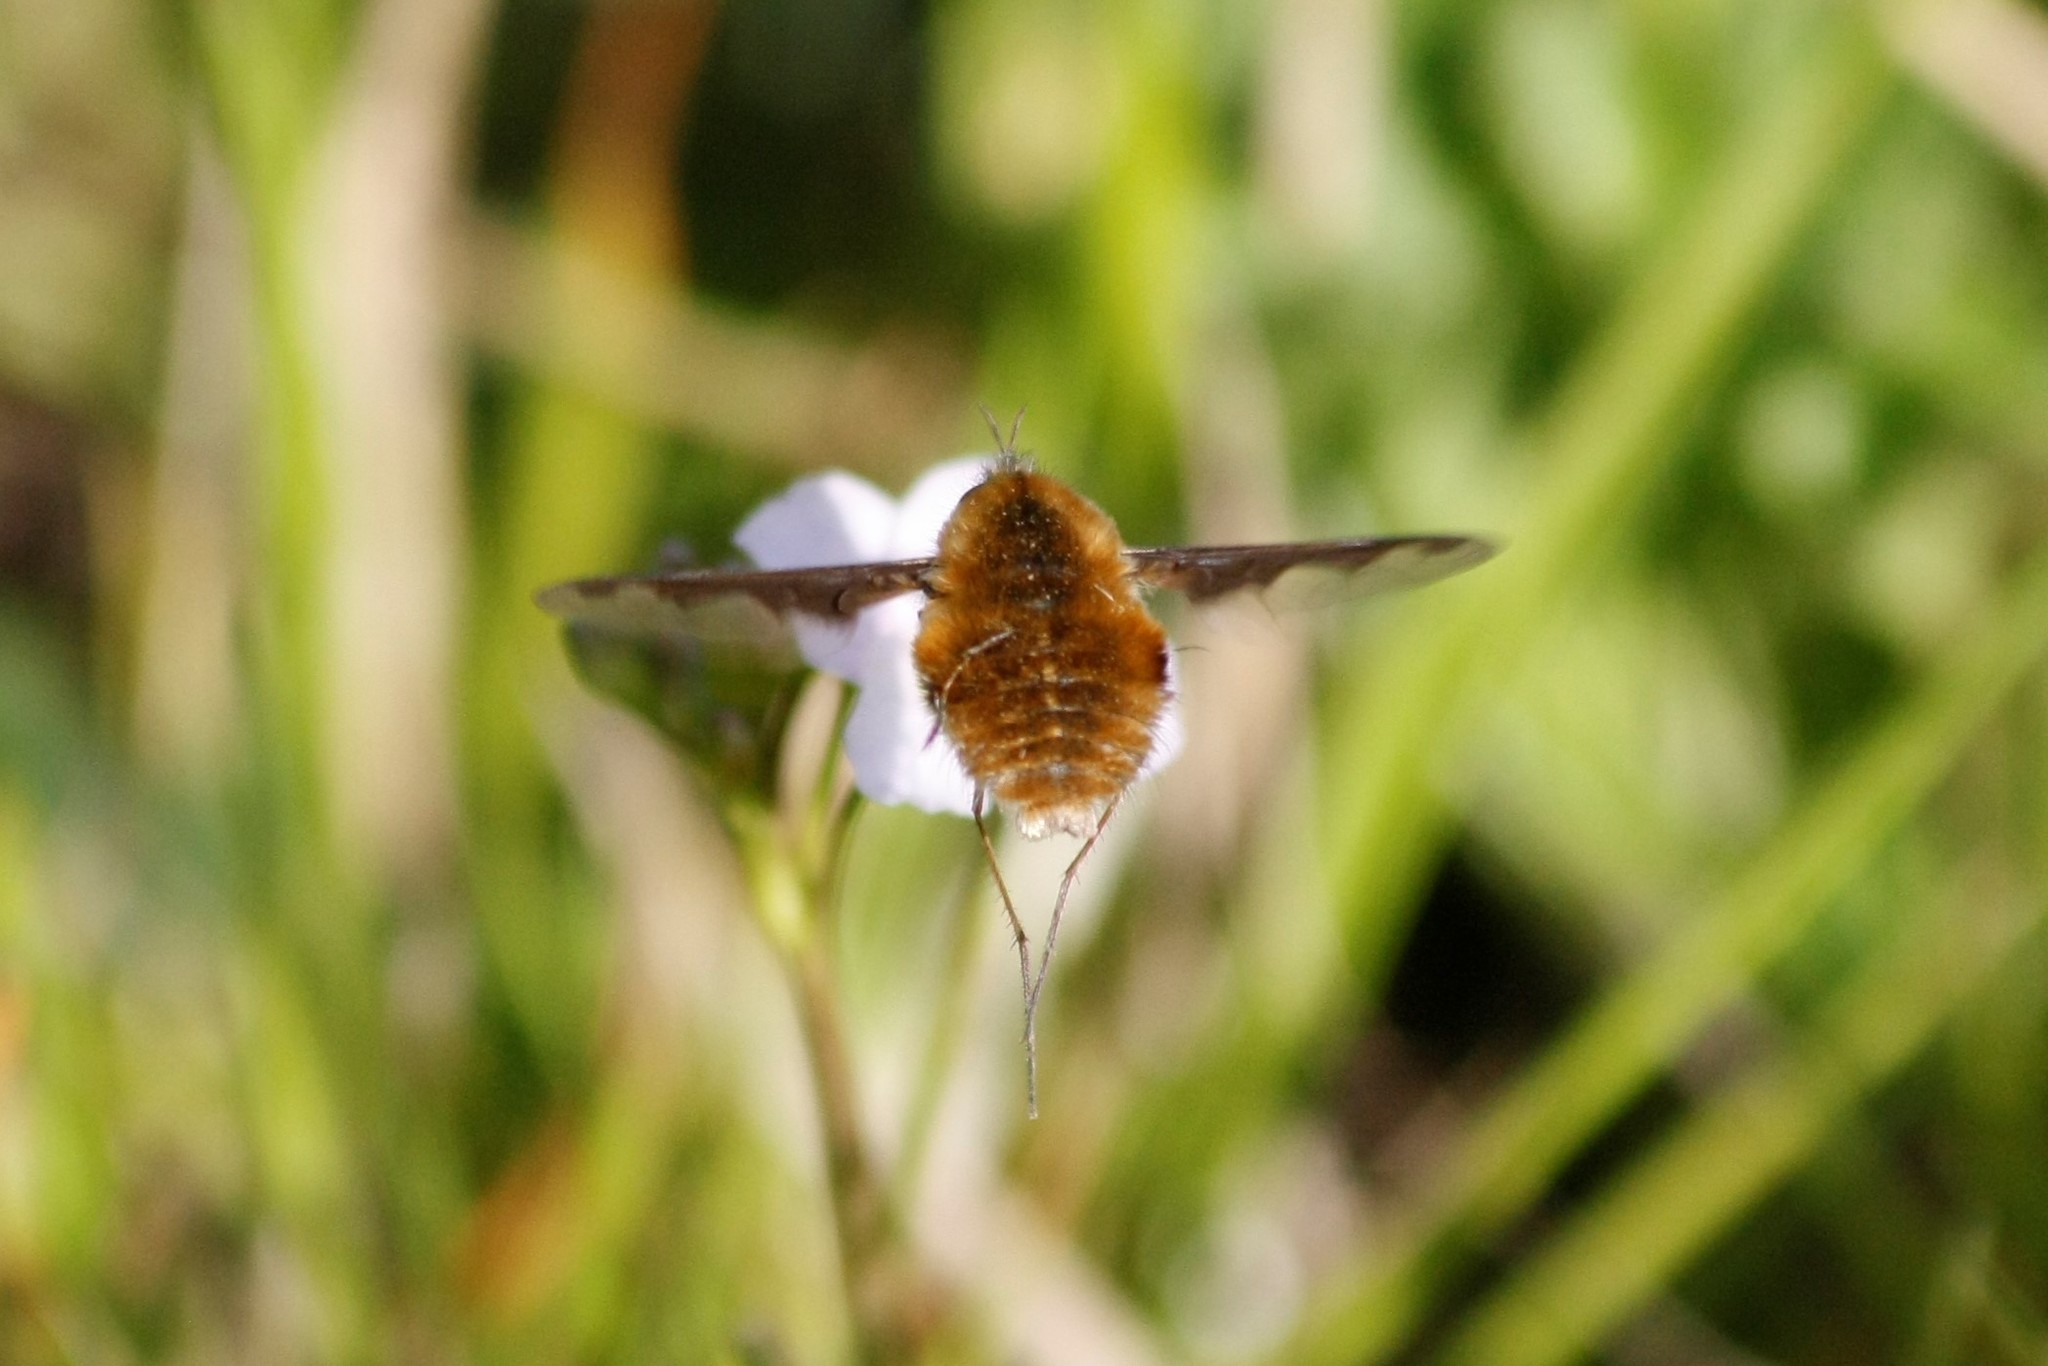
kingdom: Animalia
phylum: Arthropoda
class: Insecta
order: Diptera
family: Bombyliidae
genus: Bombylius
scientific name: Bombylius major
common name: Bee fly
